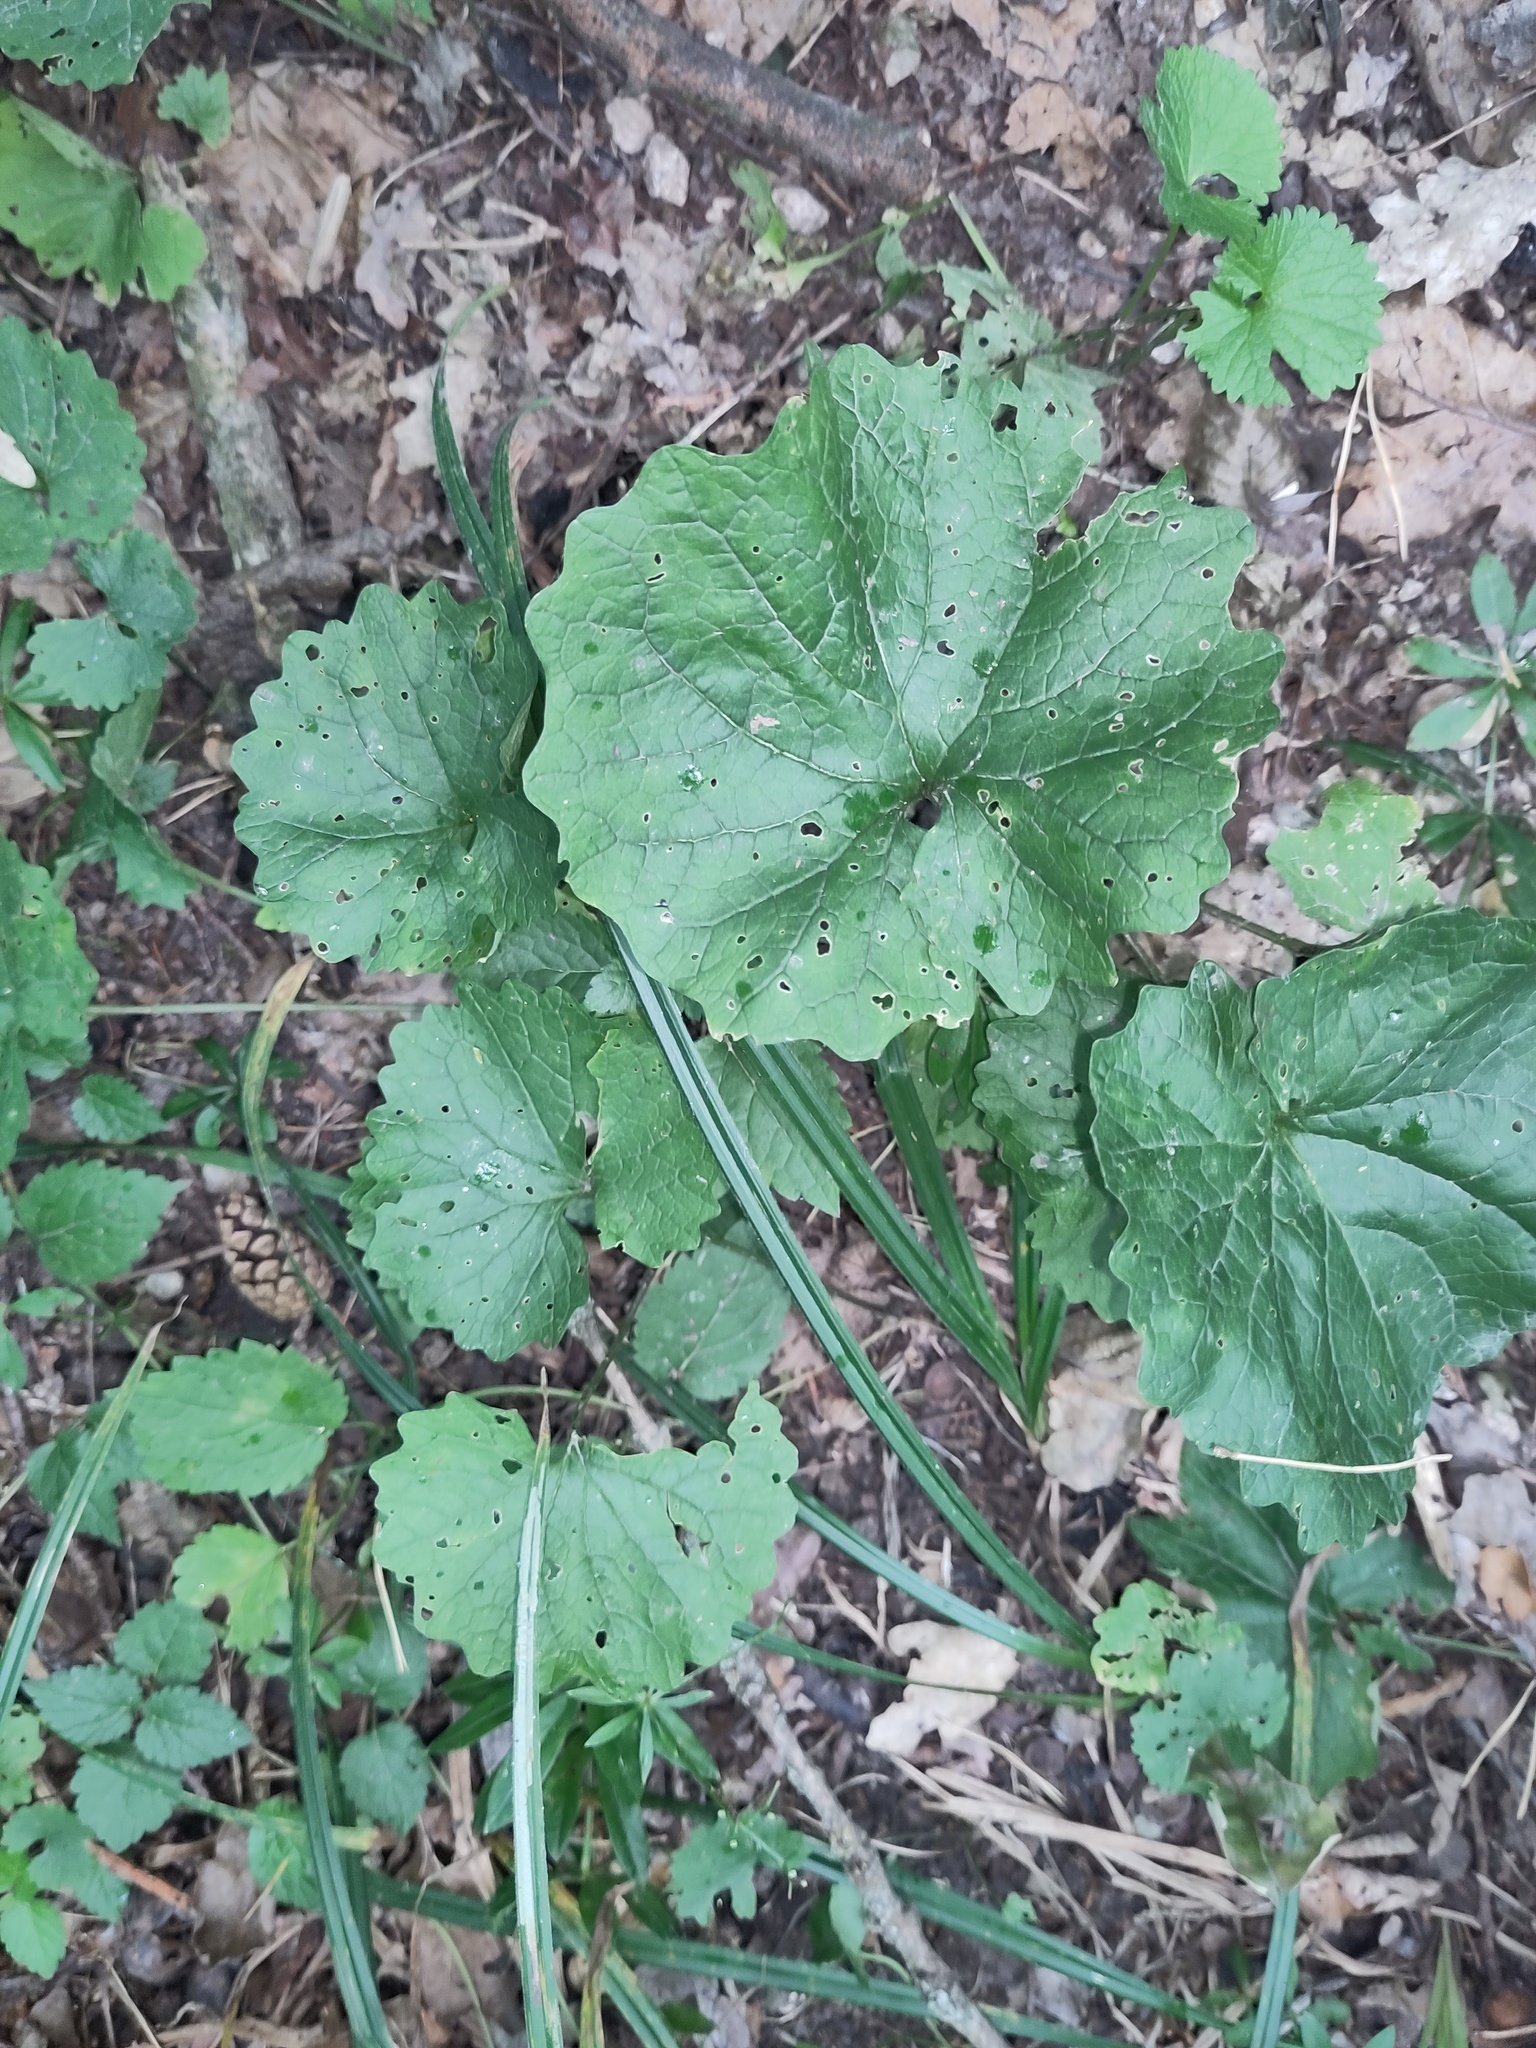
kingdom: Plantae
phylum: Tracheophyta
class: Magnoliopsida
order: Brassicales
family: Brassicaceae
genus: Alliaria
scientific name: Alliaria petiolata
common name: Garlic mustard
